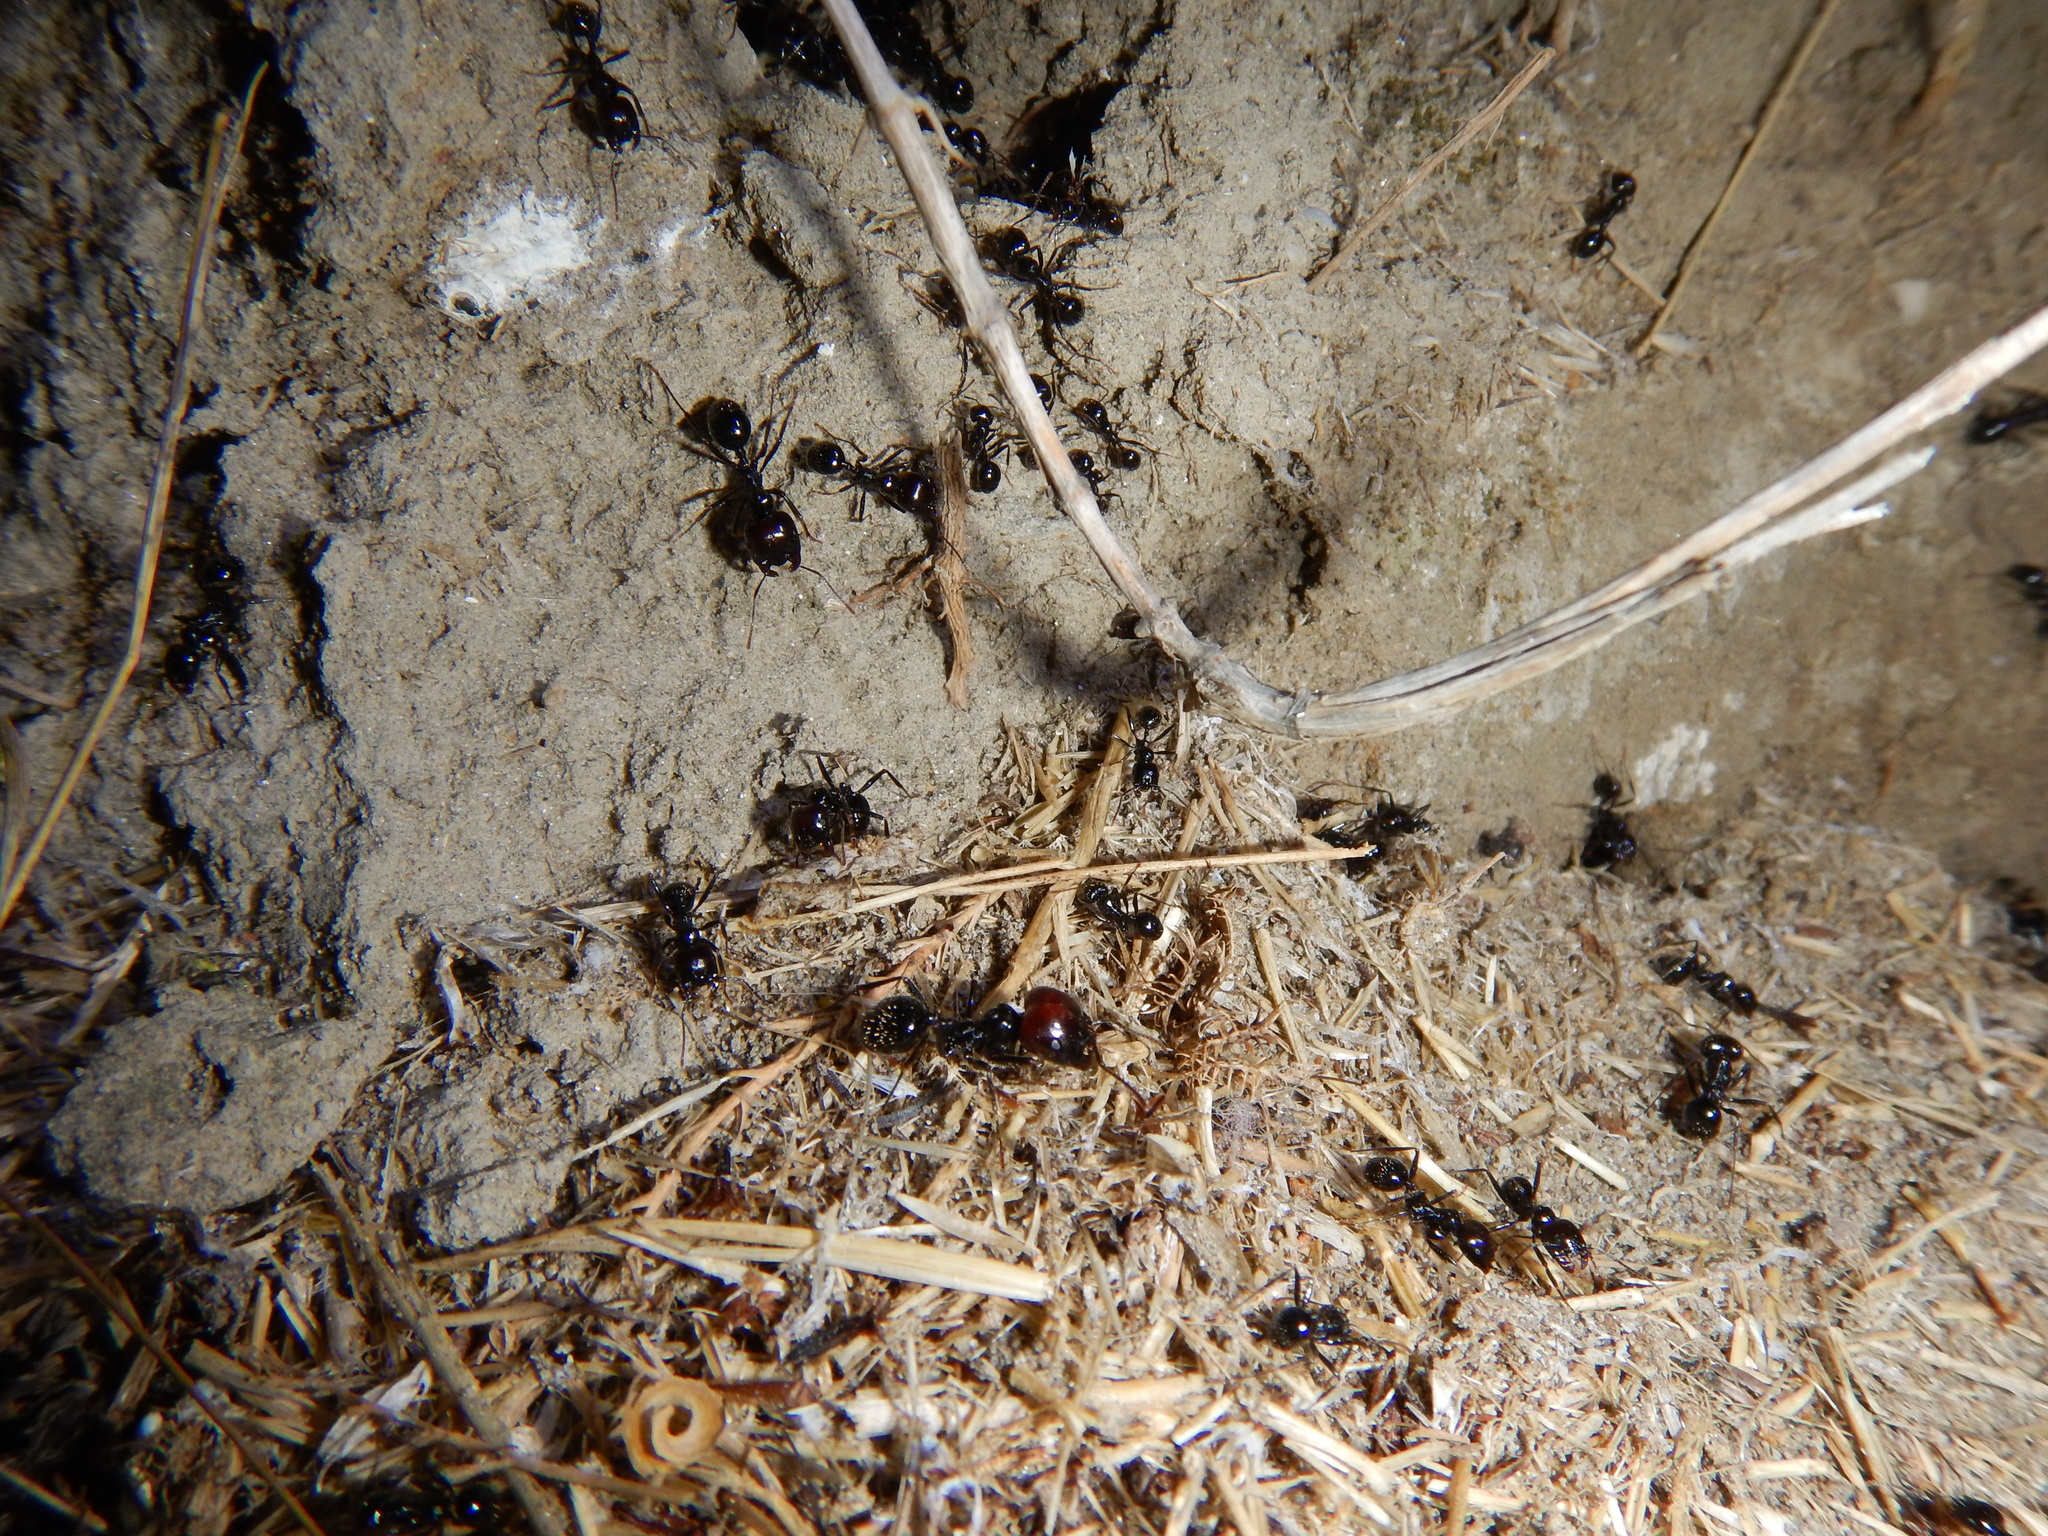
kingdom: Animalia
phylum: Arthropoda
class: Insecta
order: Hymenoptera
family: Formicidae
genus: Messor
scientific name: Messor barbarus
